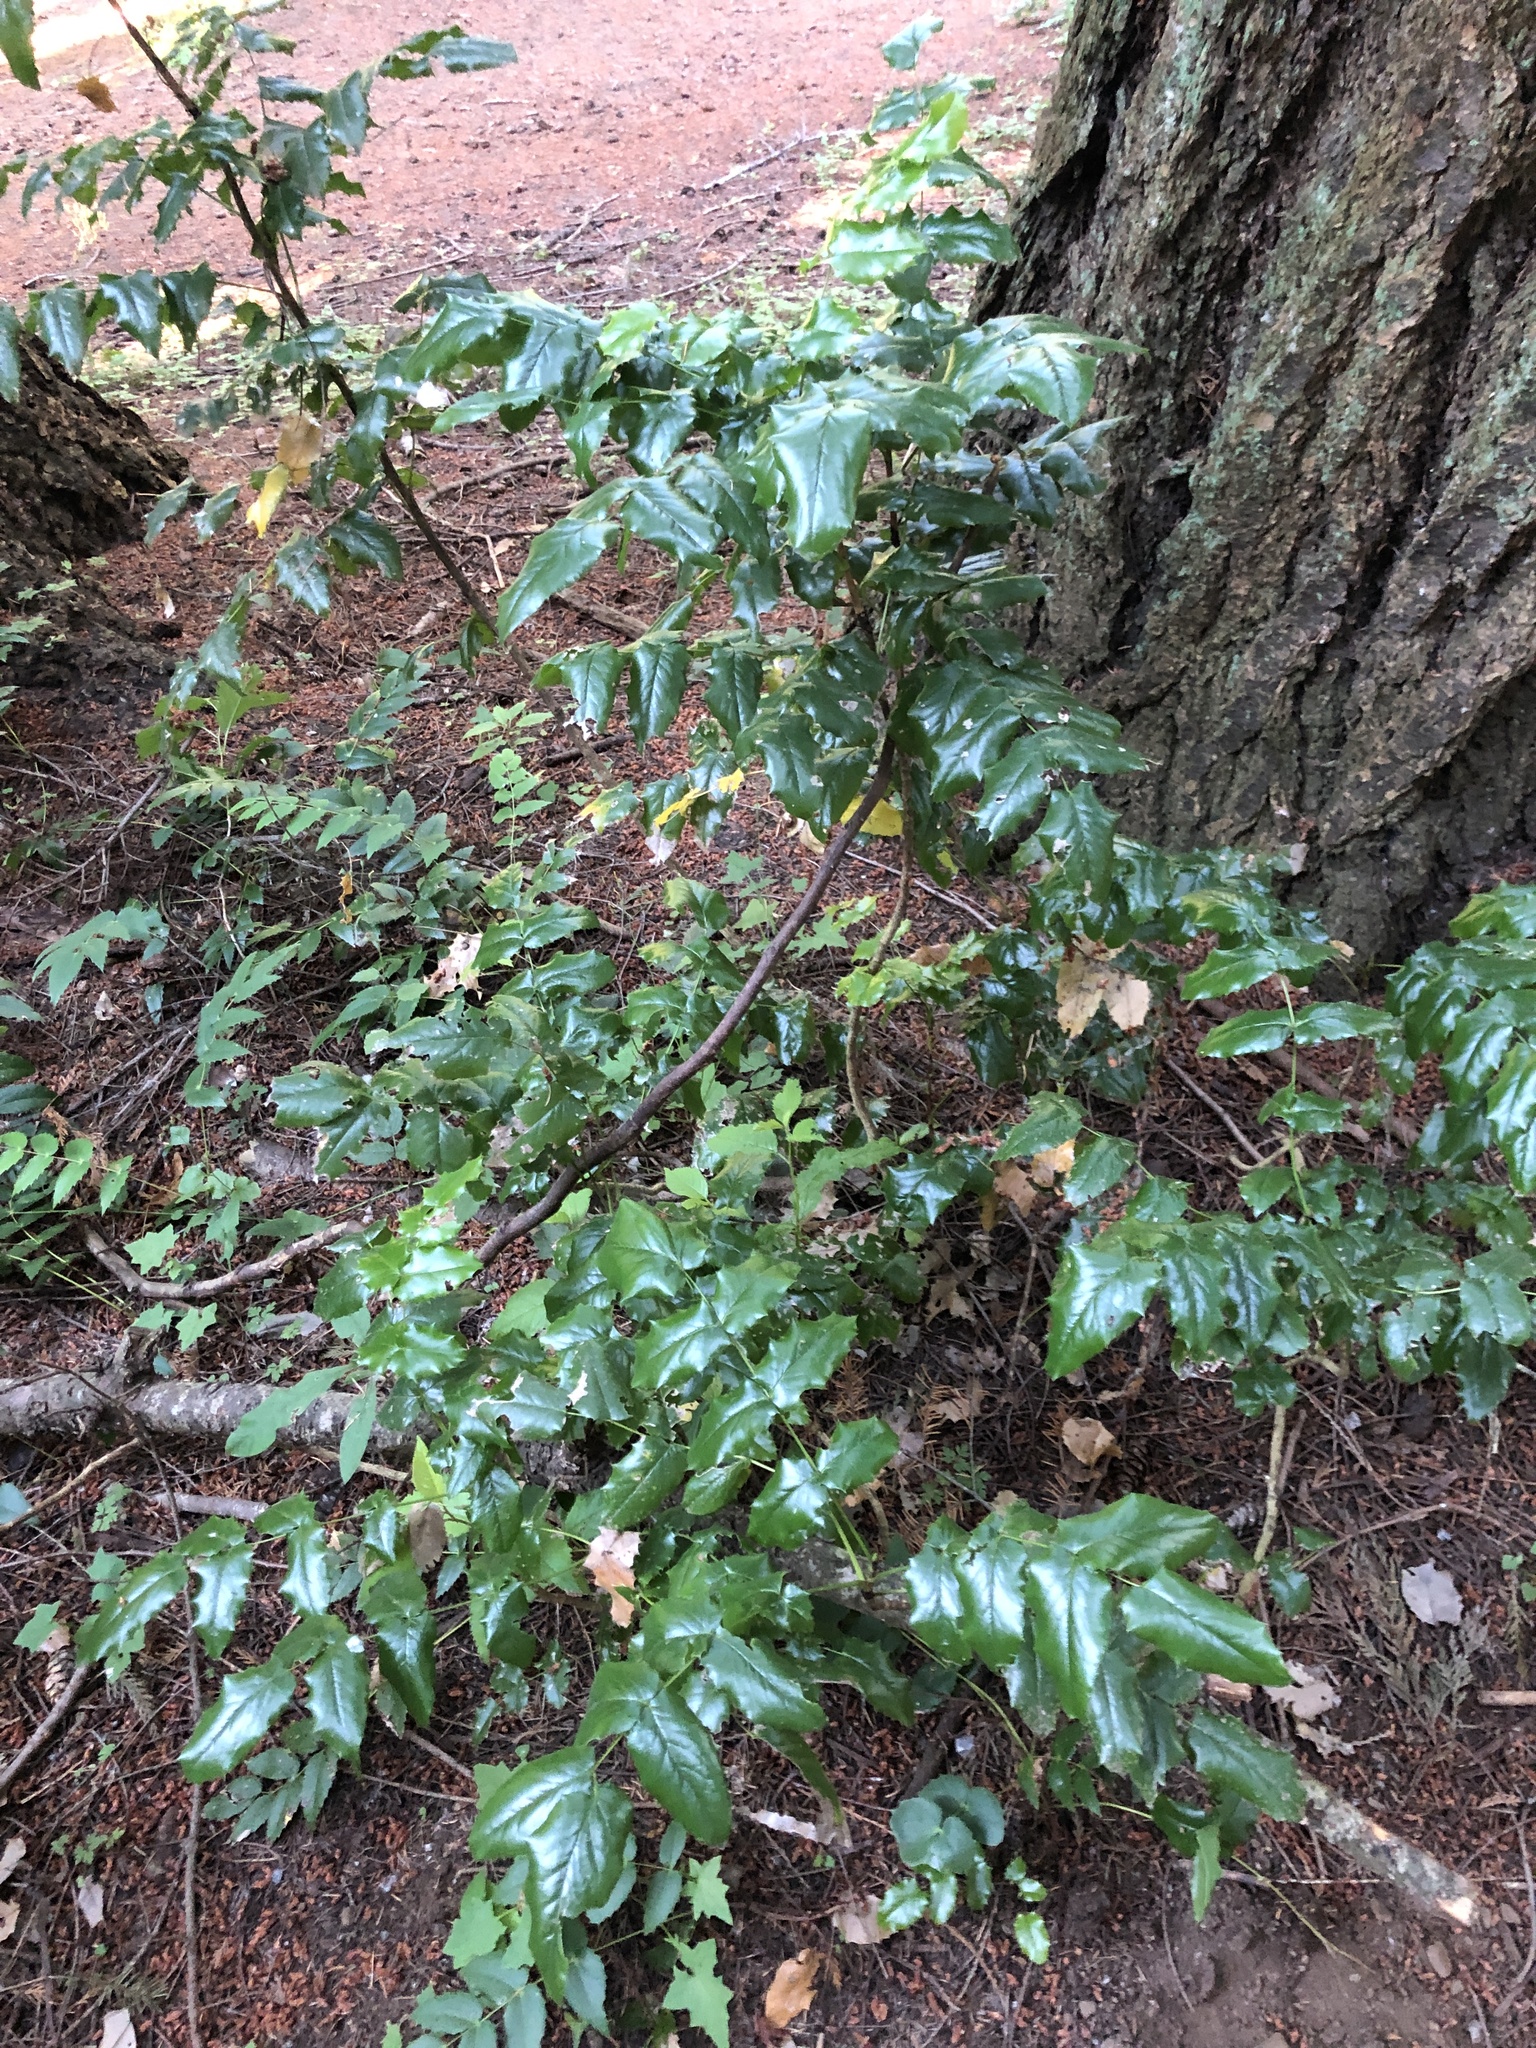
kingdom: Plantae
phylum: Tracheophyta
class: Magnoliopsida
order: Ranunculales
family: Berberidaceae
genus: Mahonia
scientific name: Mahonia aquifolium
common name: Oregon-grape
